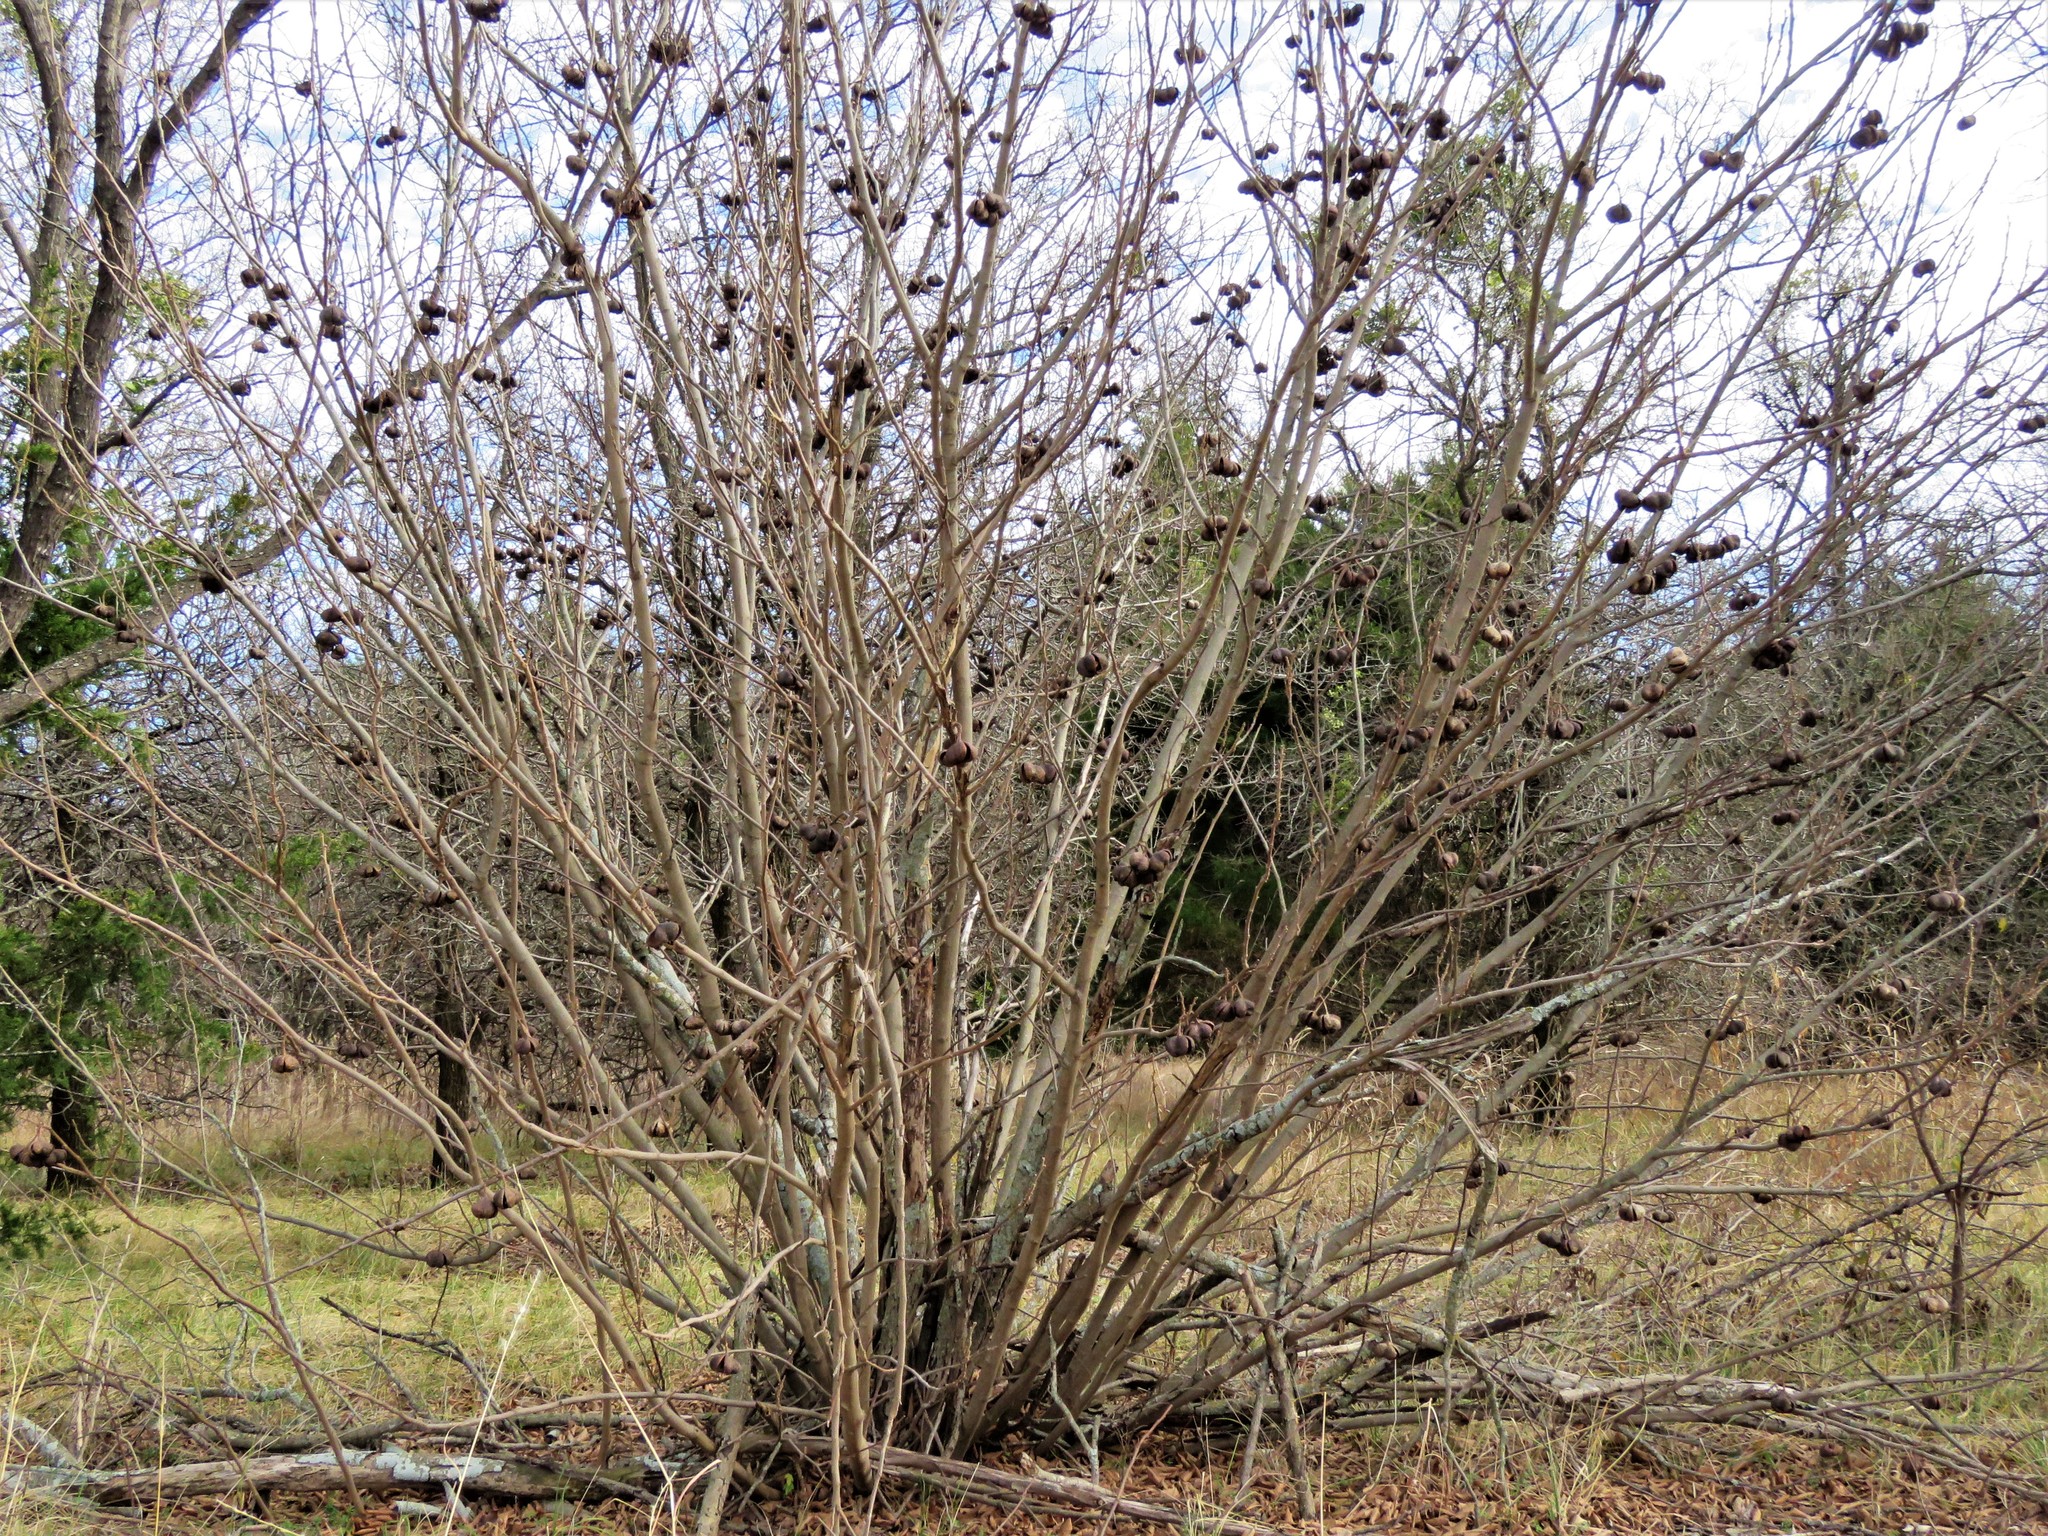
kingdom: Plantae
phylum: Tracheophyta
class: Magnoliopsida
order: Sapindales
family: Sapindaceae
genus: Ungnadia
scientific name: Ungnadia speciosa
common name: Texas-buckeye
